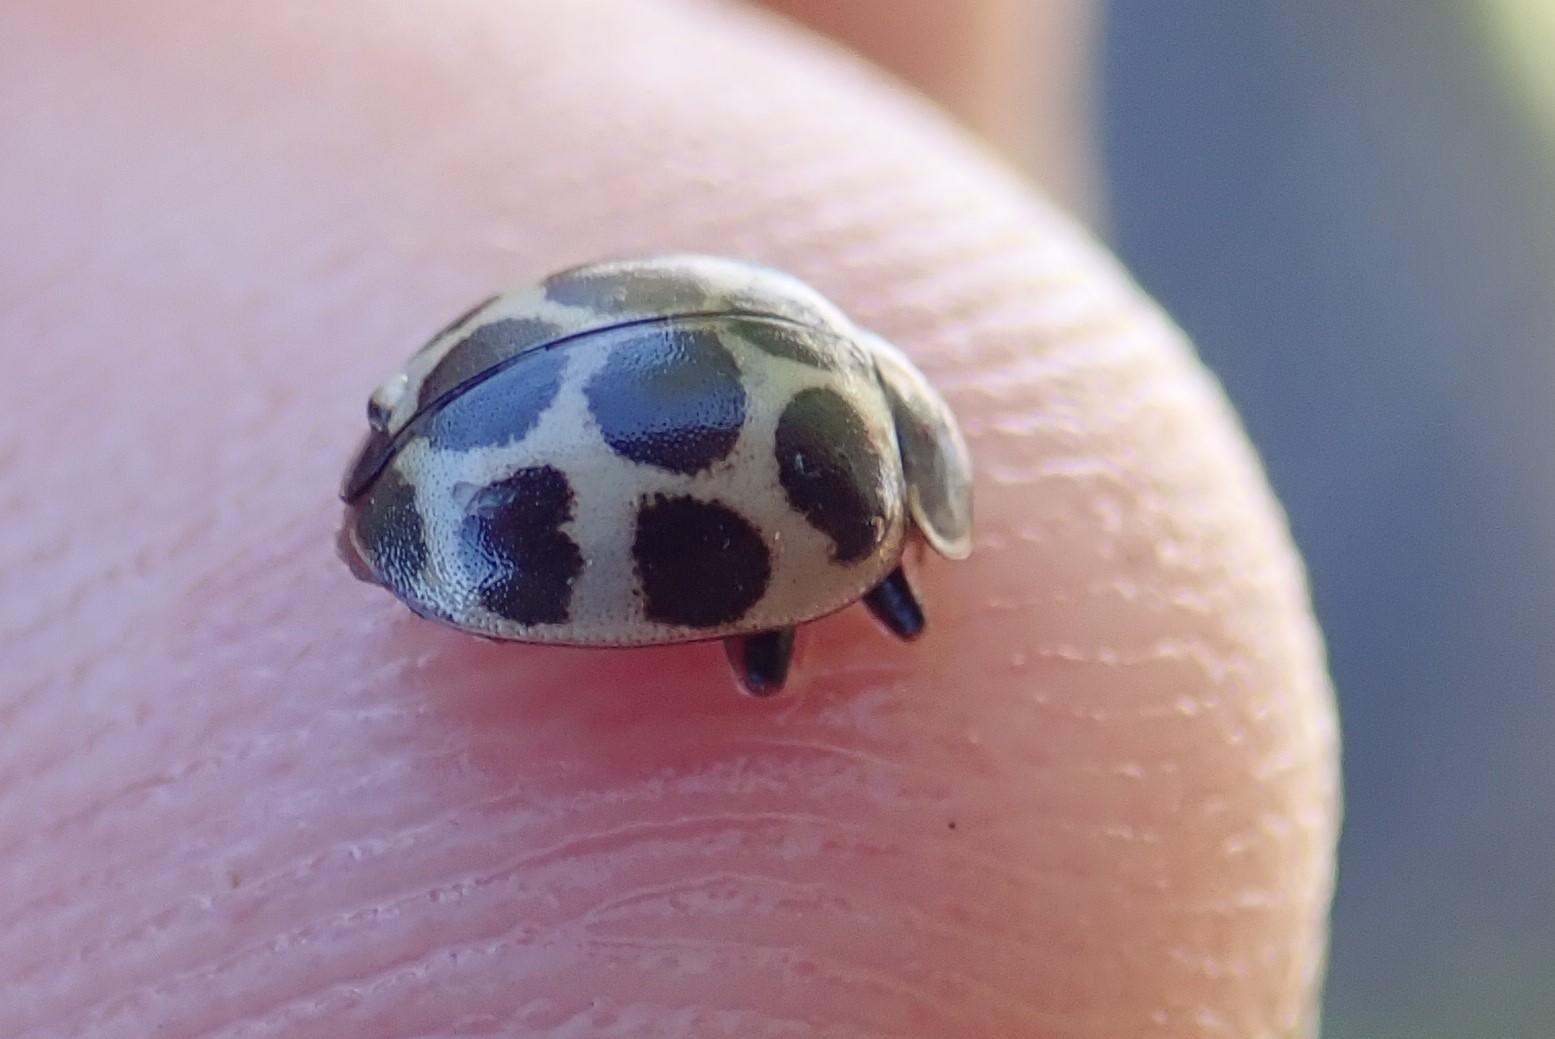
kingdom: Animalia
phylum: Arthropoda
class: Insecta
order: Coleoptera
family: Coccinellidae
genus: Calvia
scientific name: Calvia quatuordecimguttata
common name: Cream-spot ladybird
